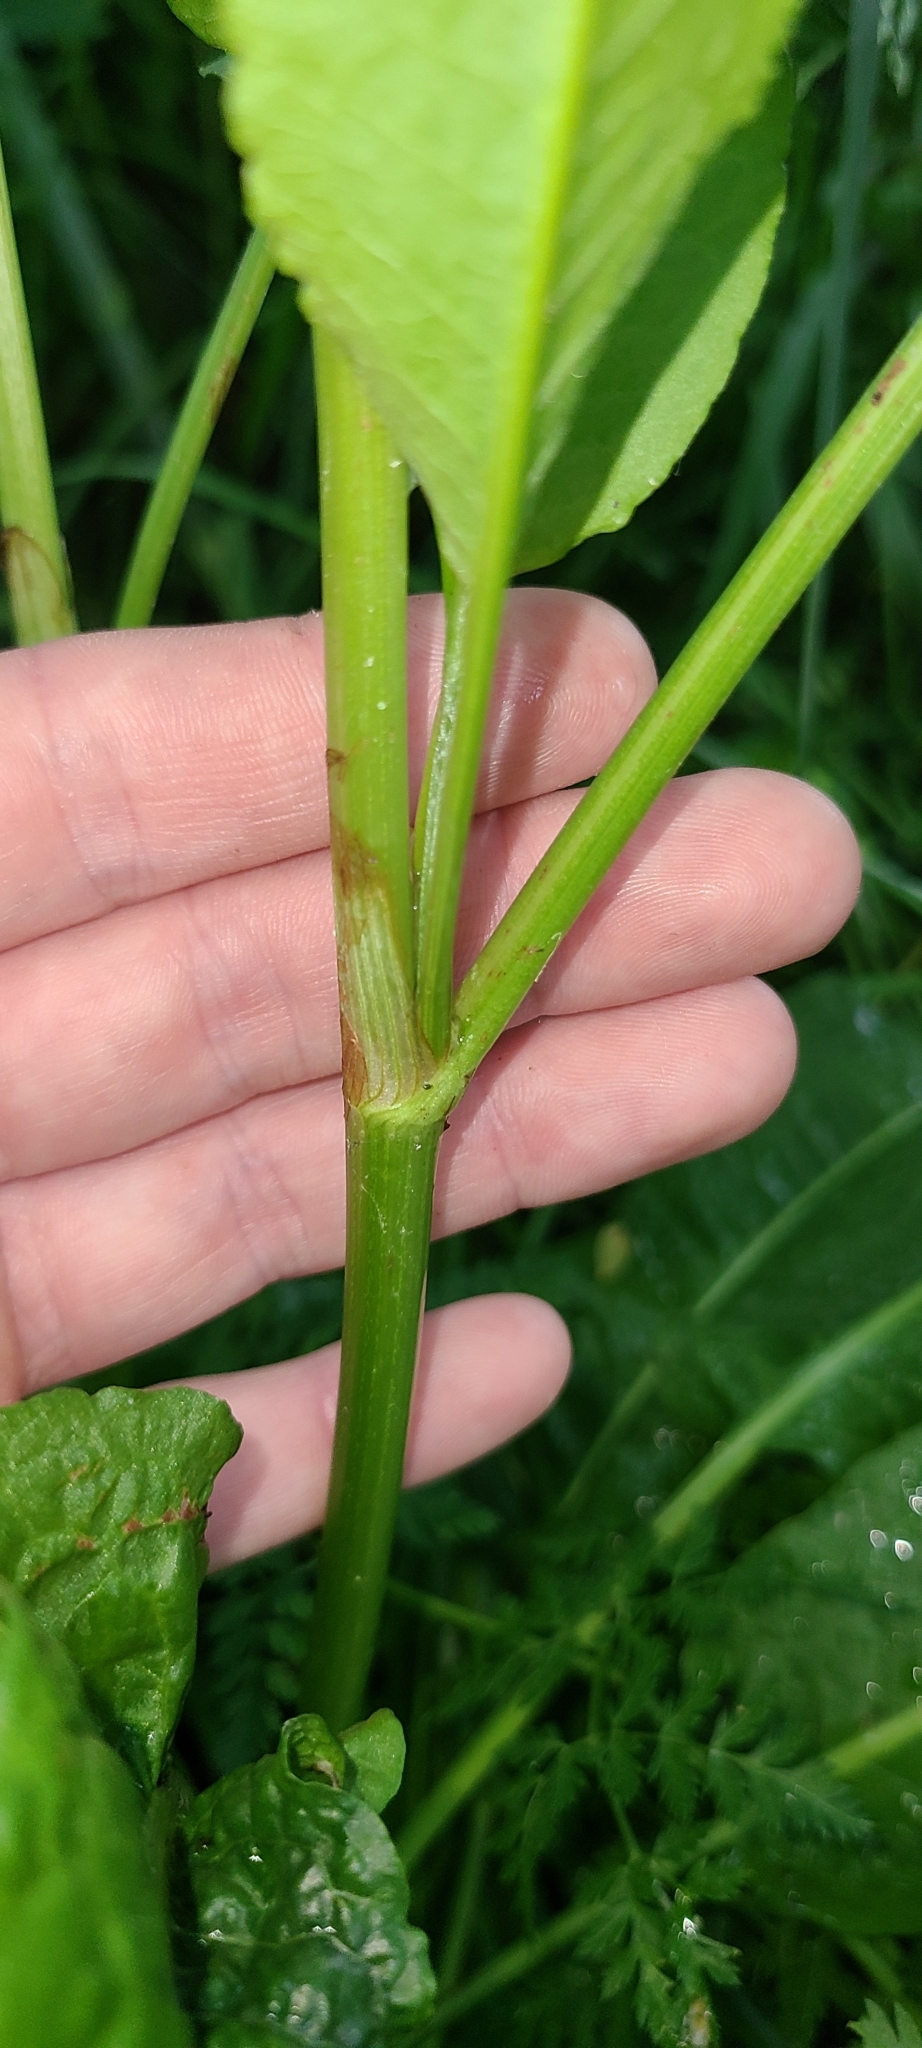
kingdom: Plantae
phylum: Tracheophyta
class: Magnoliopsida
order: Caryophyllales
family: Polygonaceae
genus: Rumex
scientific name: Rumex obtusifolius
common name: Bitter dock
